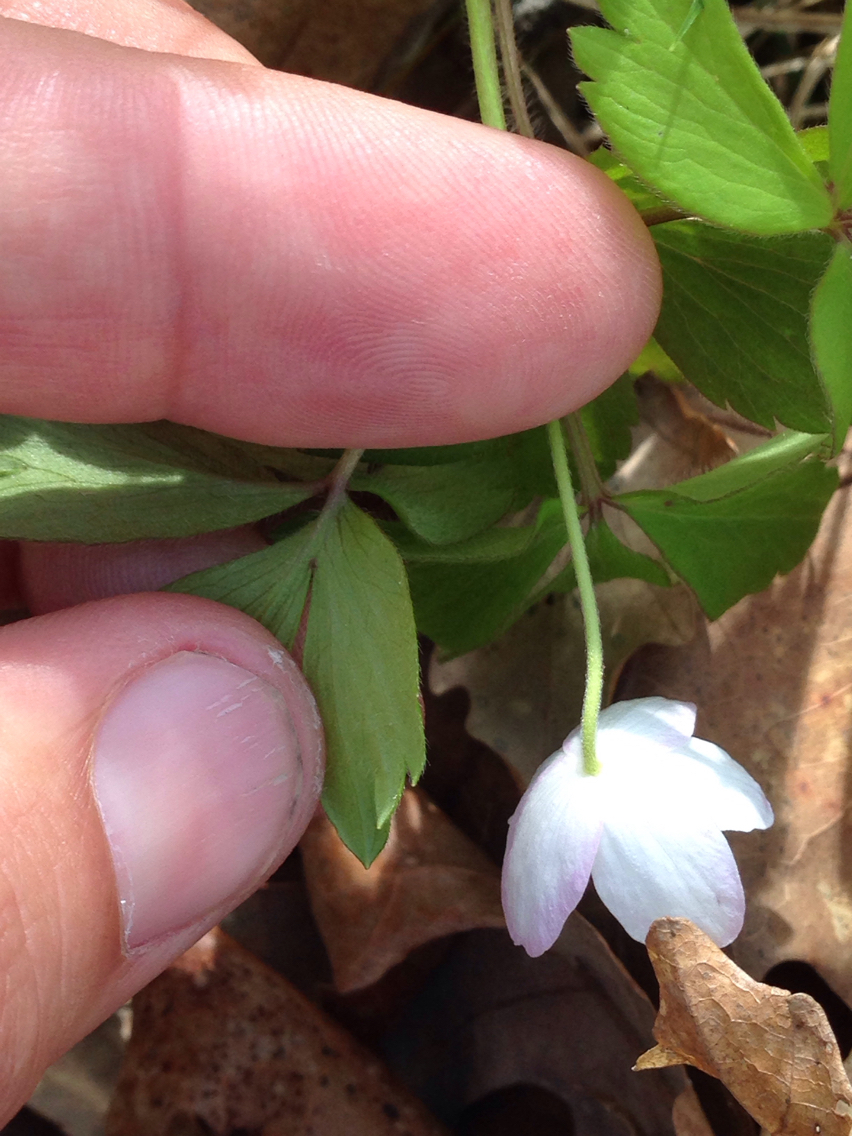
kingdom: Plantae
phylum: Tracheophyta
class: Magnoliopsida
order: Ranunculales
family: Ranunculaceae
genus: Anemone
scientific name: Anemone quinquefolia
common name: Wood anemone
